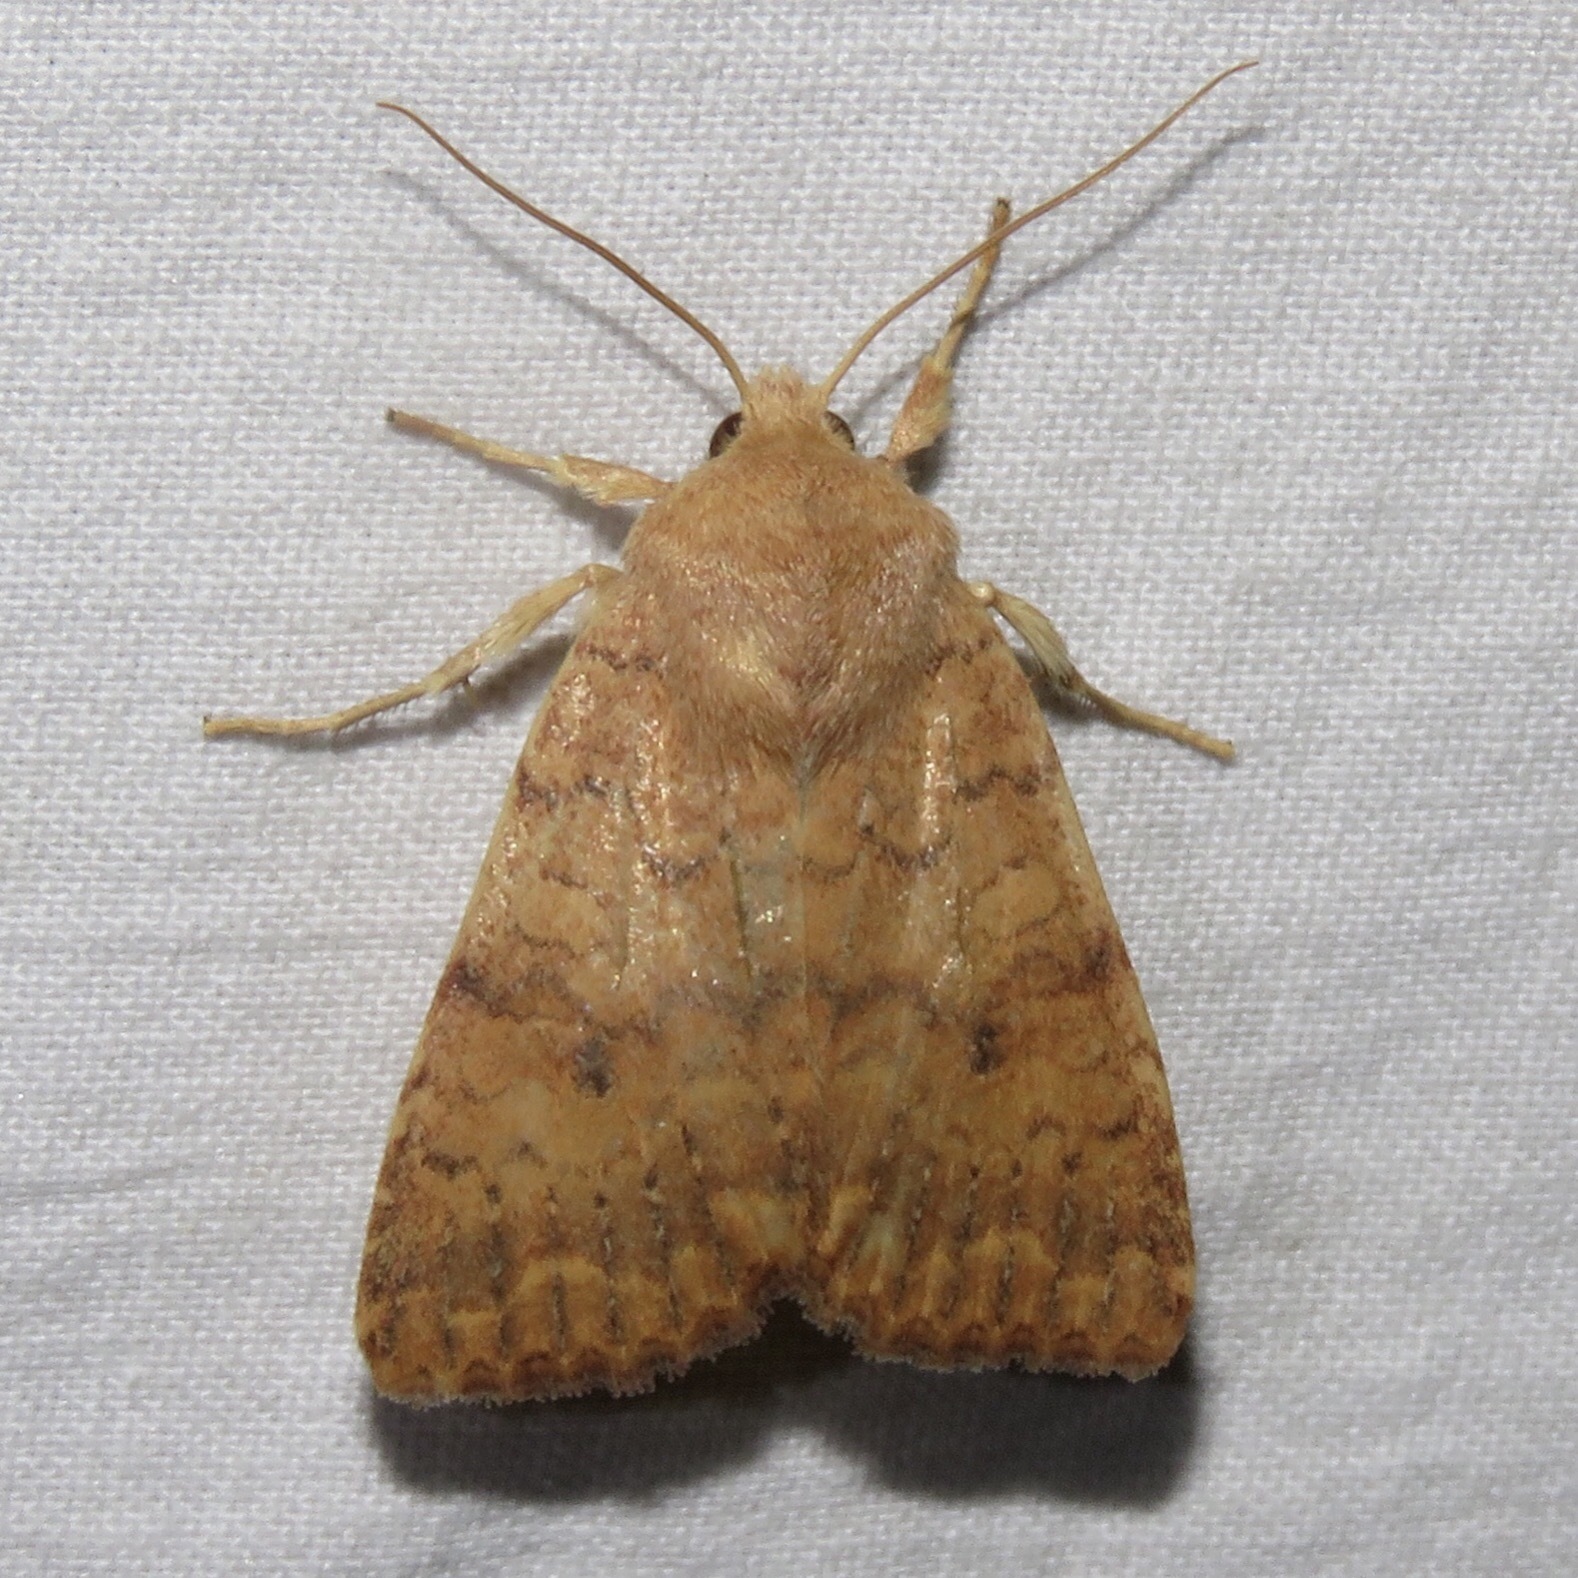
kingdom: Animalia
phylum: Arthropoda
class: Insecta
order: Lepidoptera
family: Noctuidae
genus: Agrochola
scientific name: Agrochola bicolorago
